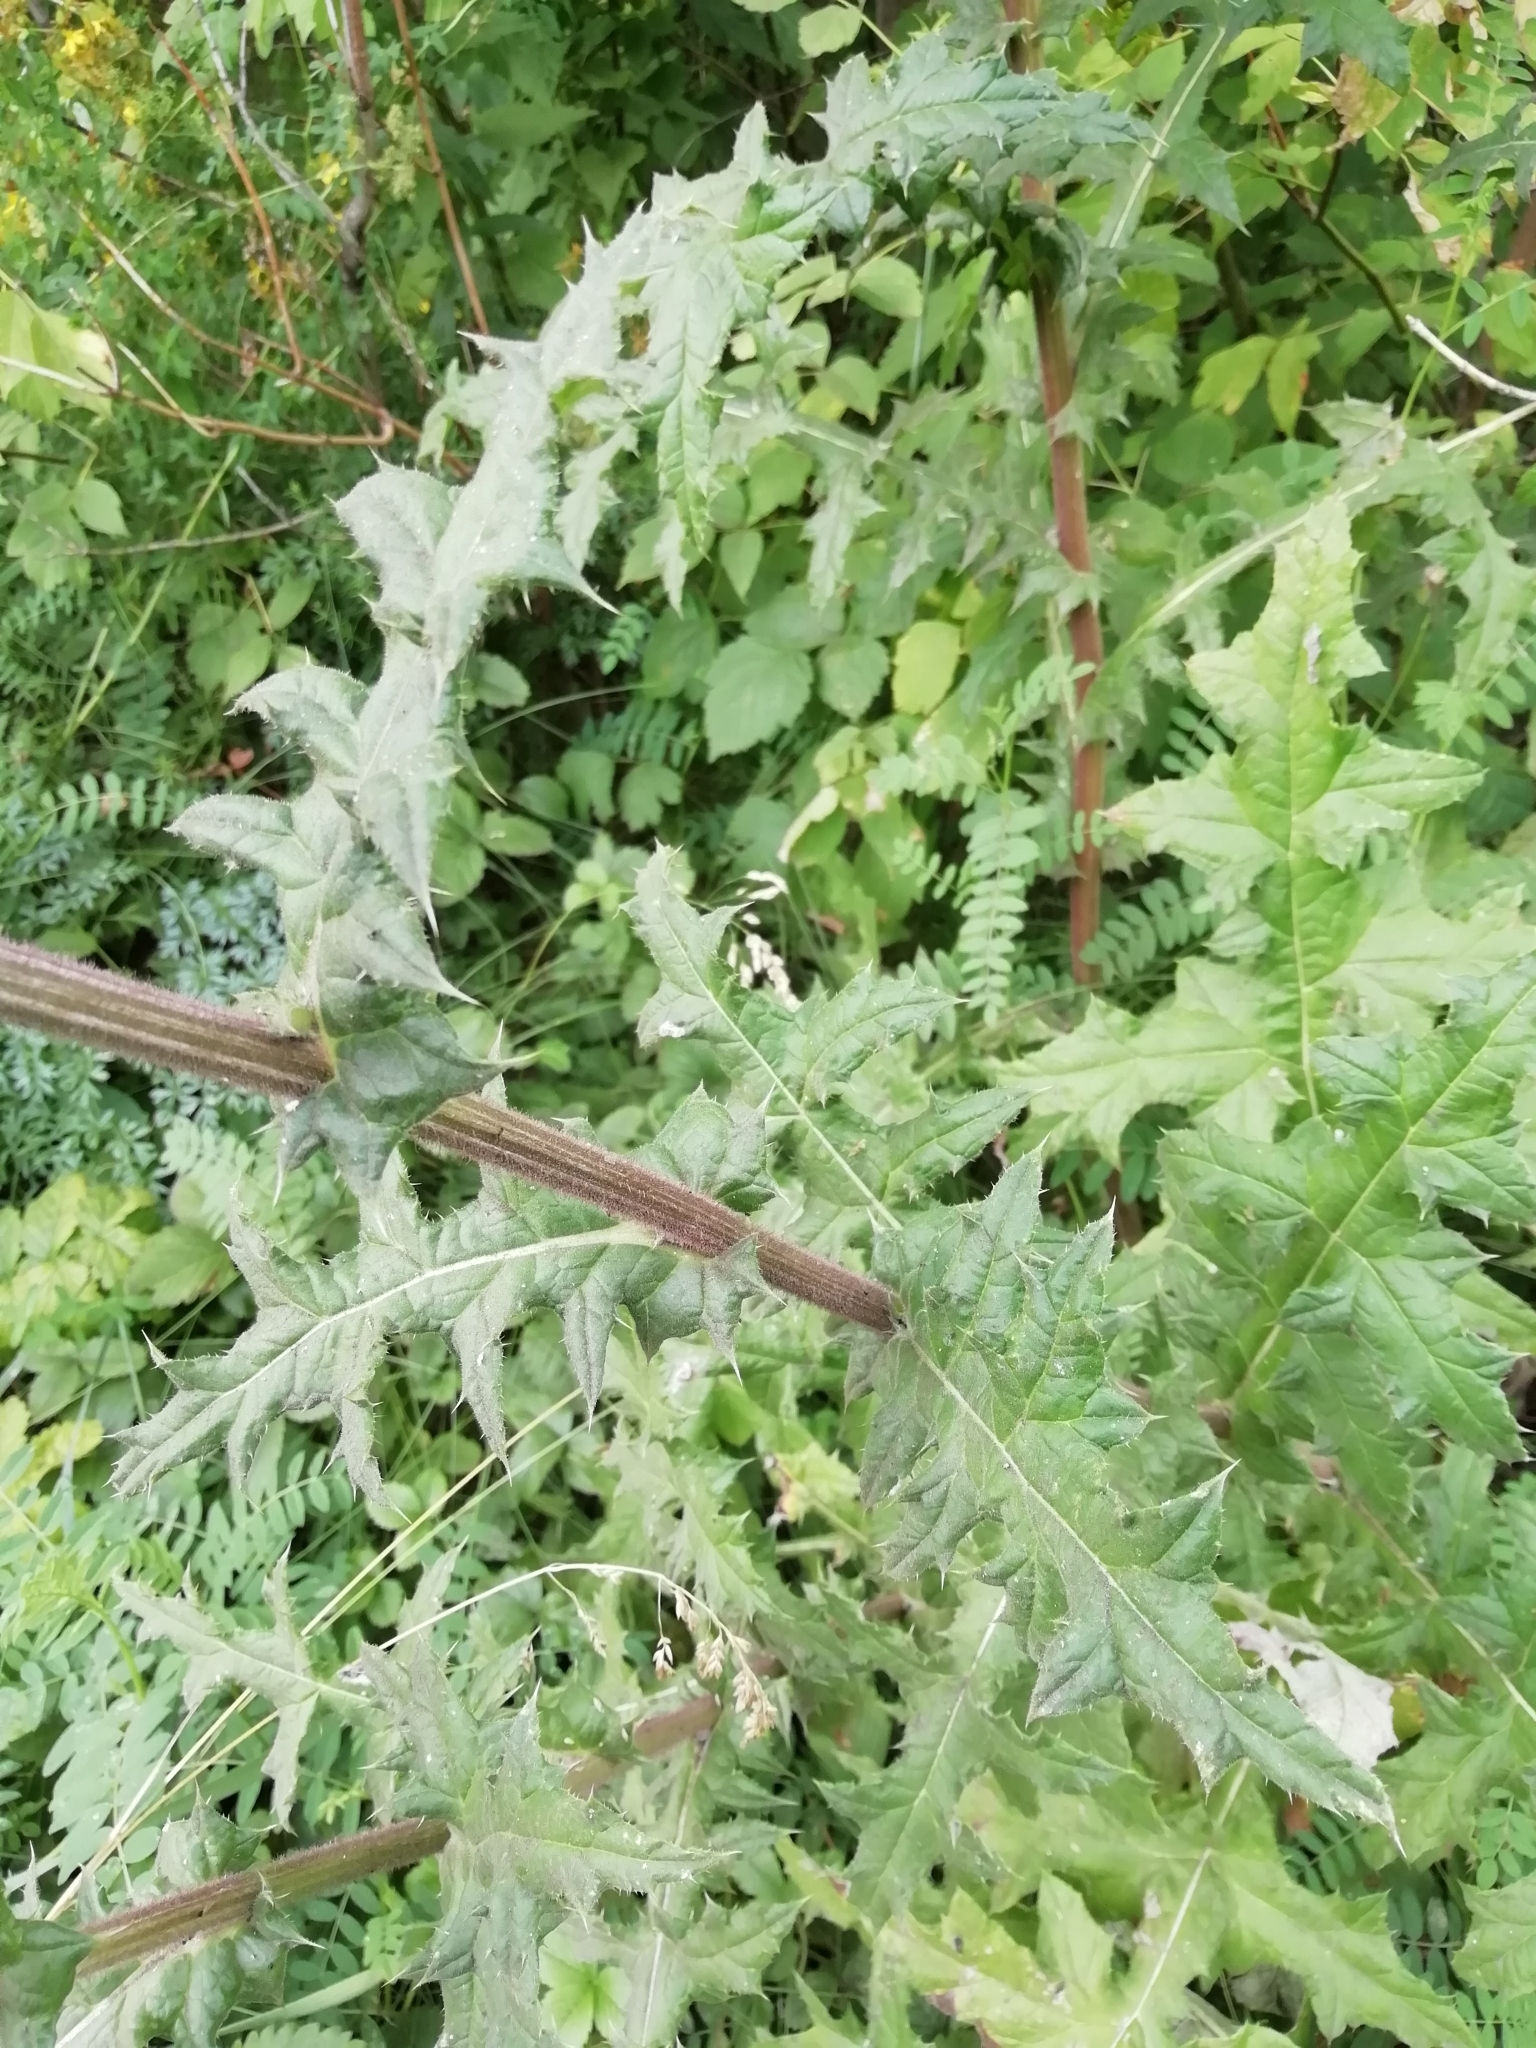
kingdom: Plantae
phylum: Tracheophyta
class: Magnoliopsida
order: Asterales
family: Asteraceae
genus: Echinops
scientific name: Echinops sphaerocephalus
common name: Glandular globe-thistle
